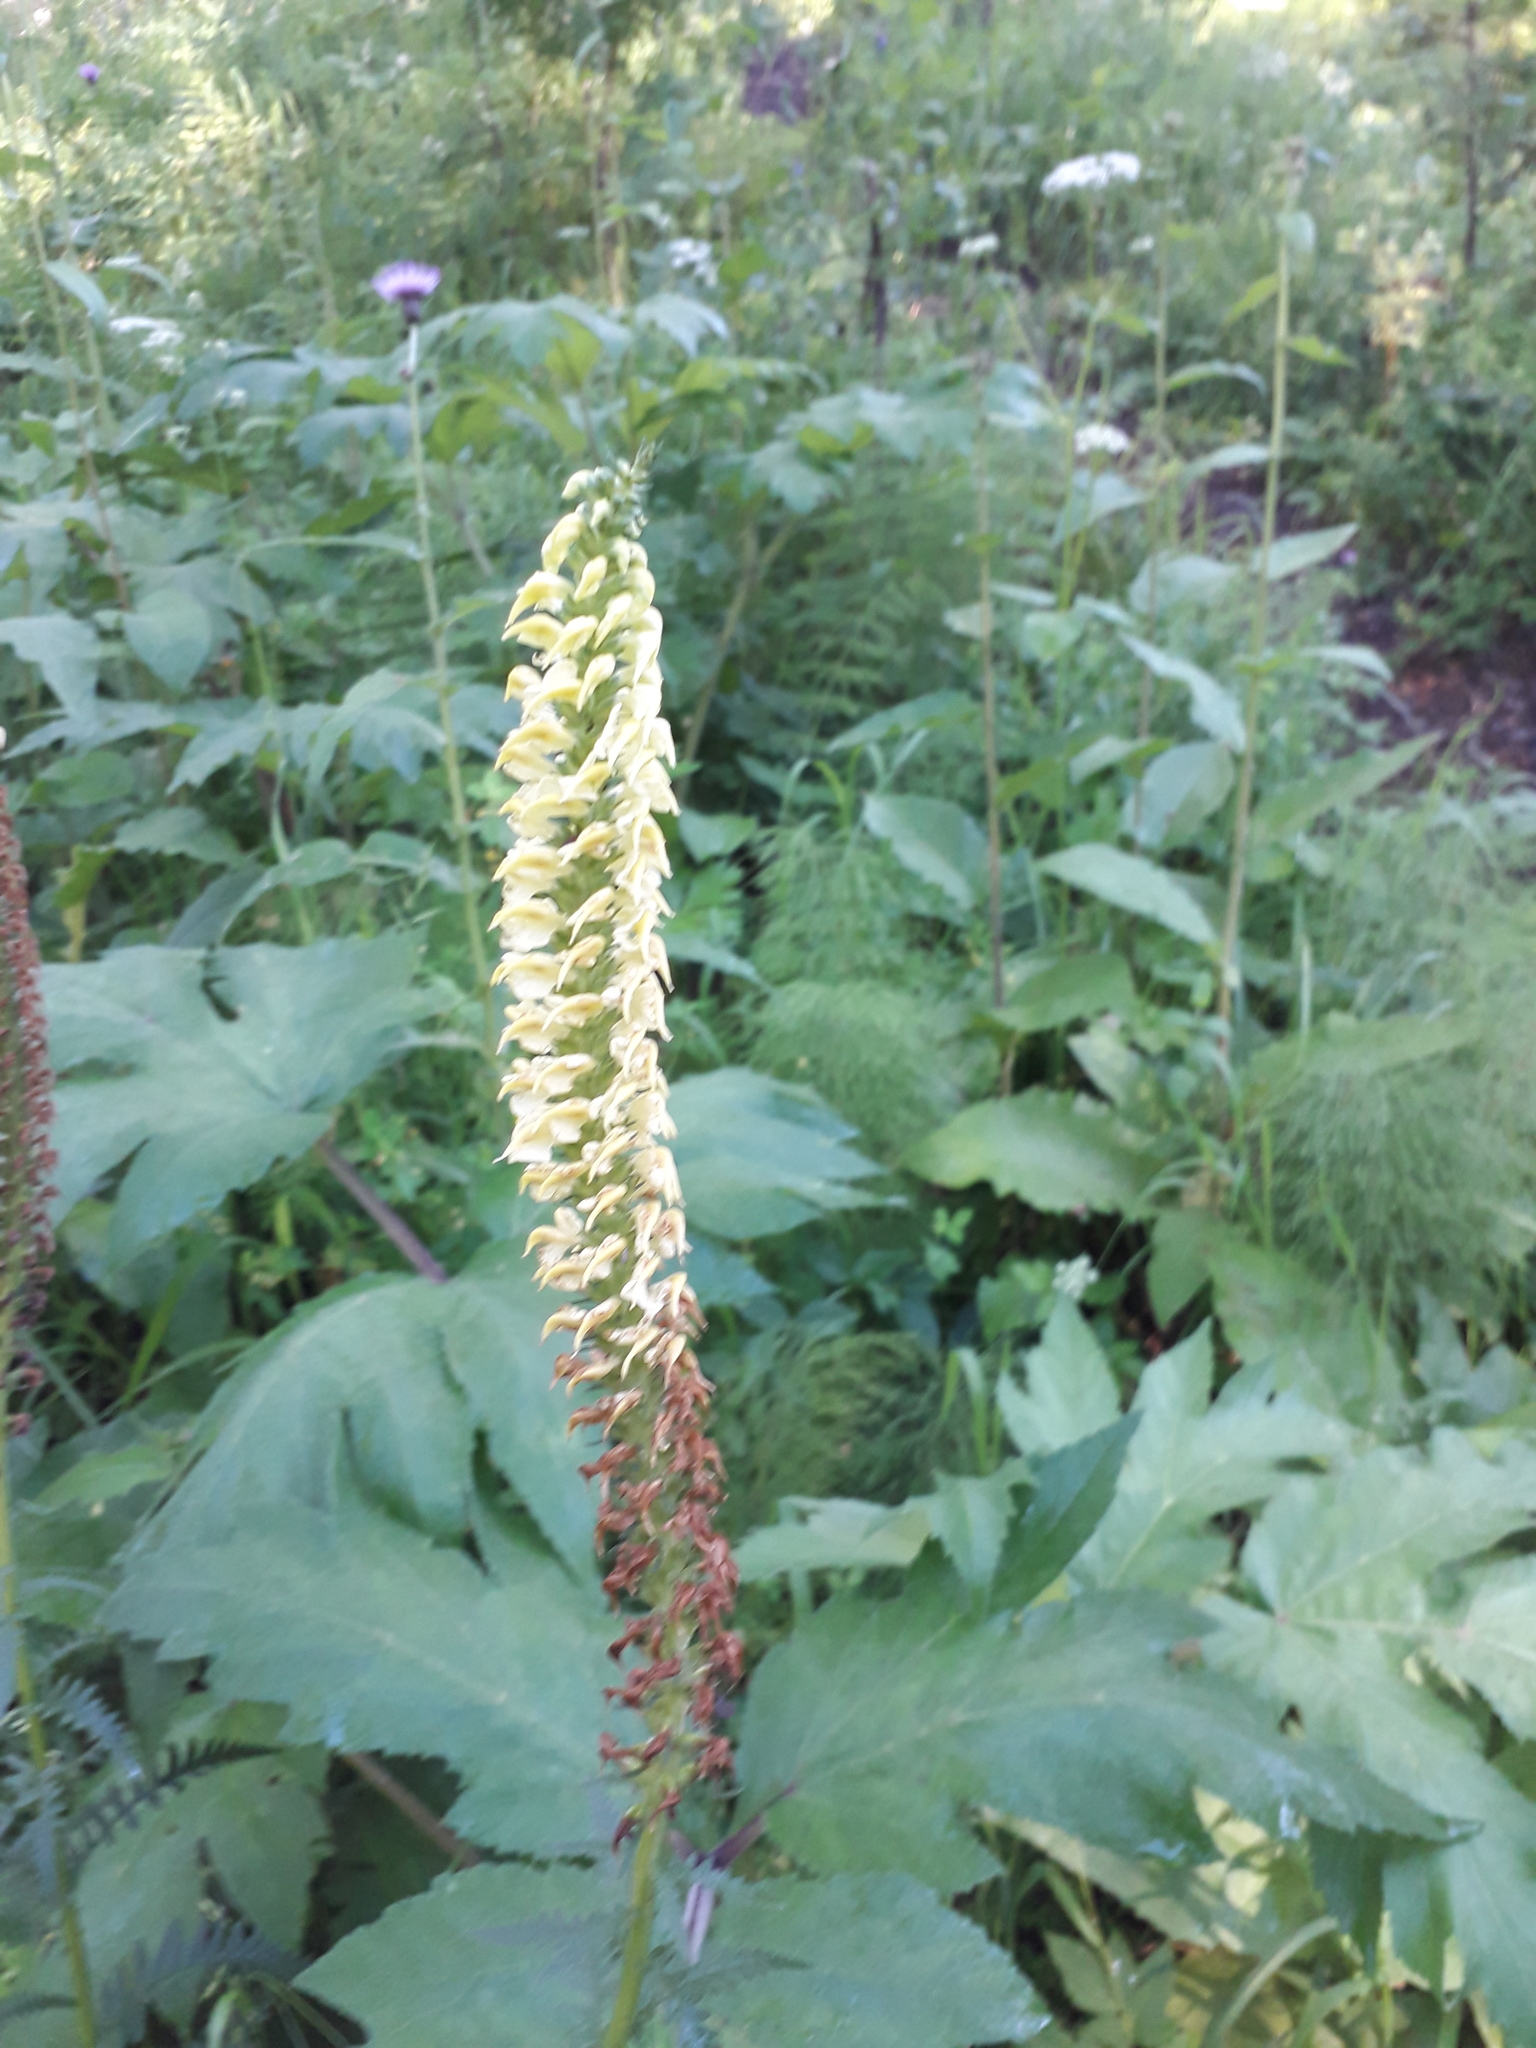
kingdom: Plantae
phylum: Tracheophyta
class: Magnoliopsida
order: Lamiales
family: Orobanchaceae
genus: Pedicularis
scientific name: Pedicularis incarnata
